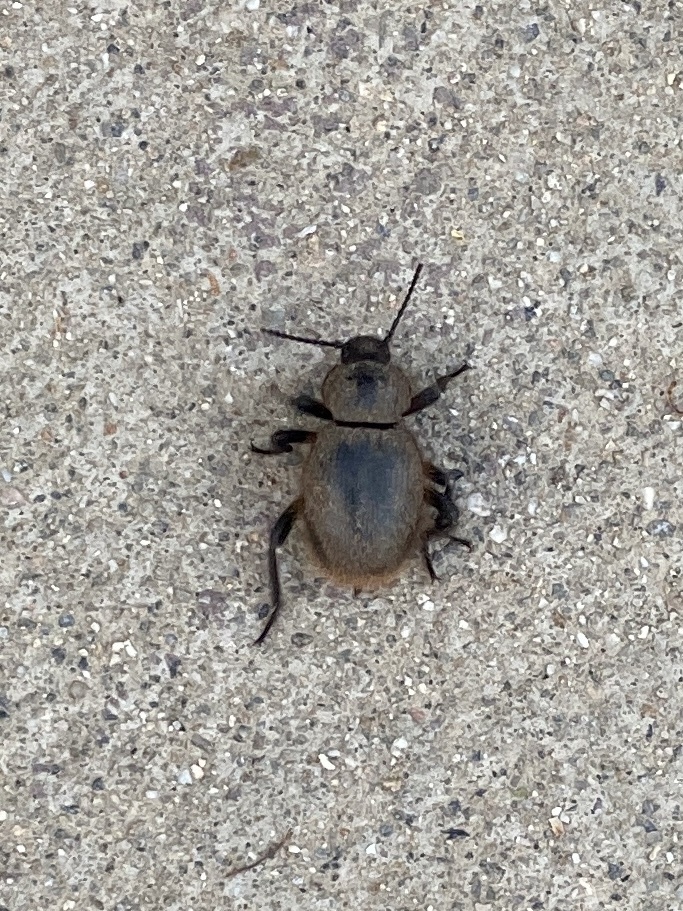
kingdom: Animalia
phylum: Arthropoda
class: Insecta
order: Coleoptera
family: Tenebrionidae
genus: Eleodes
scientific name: Eleodes osculans
